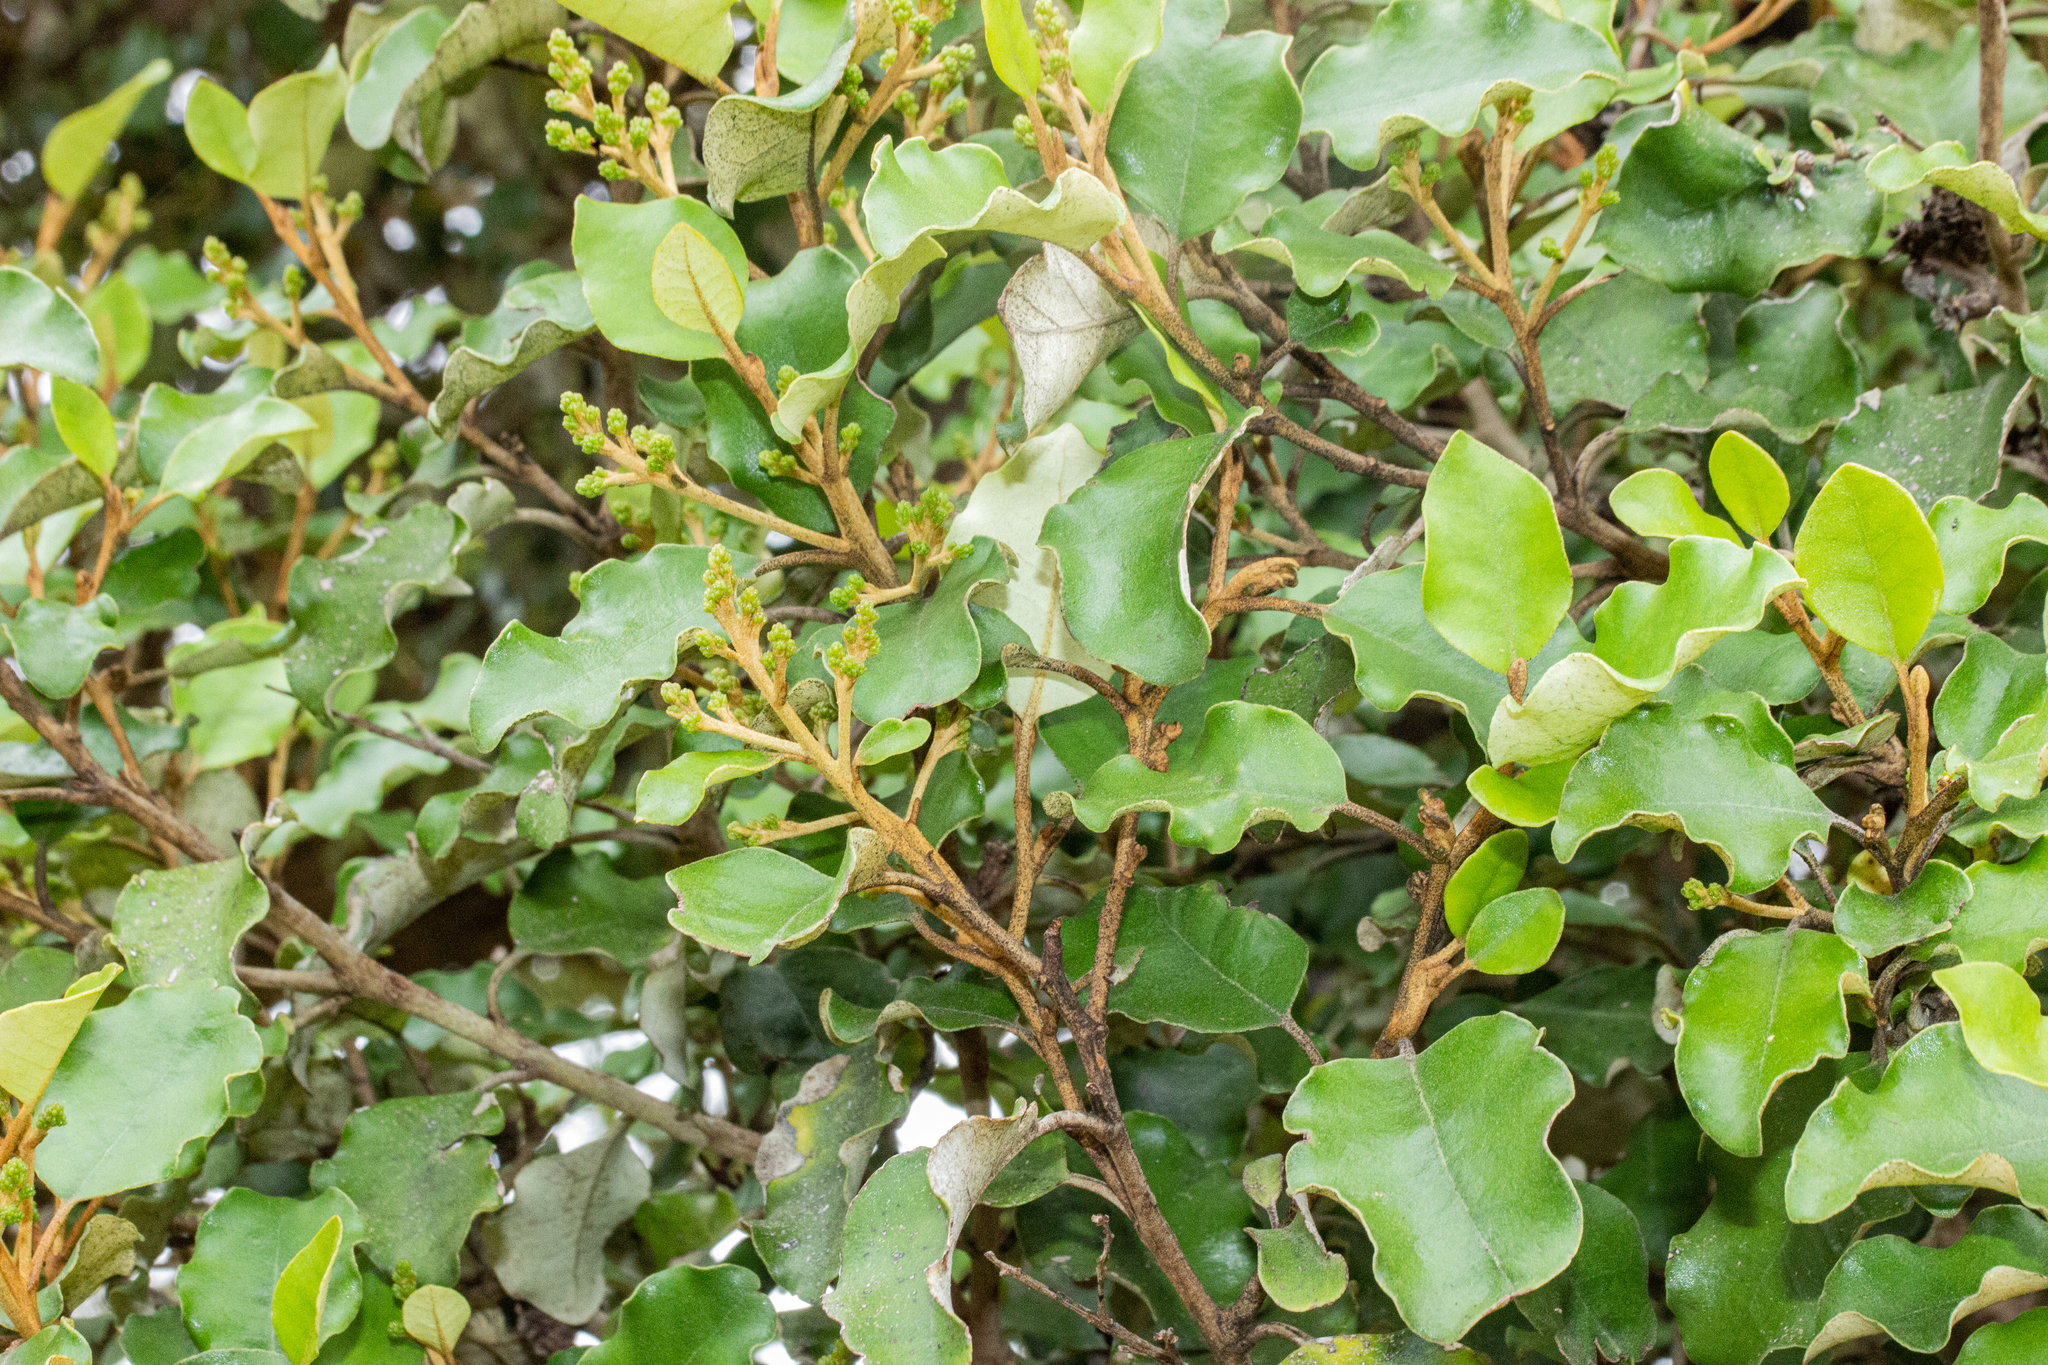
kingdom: Plantae
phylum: Tracheophyta
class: Magnoliopsida
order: Asterales
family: Asteraceae
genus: Olearia
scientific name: Olearia paniculata
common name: Akiraho
